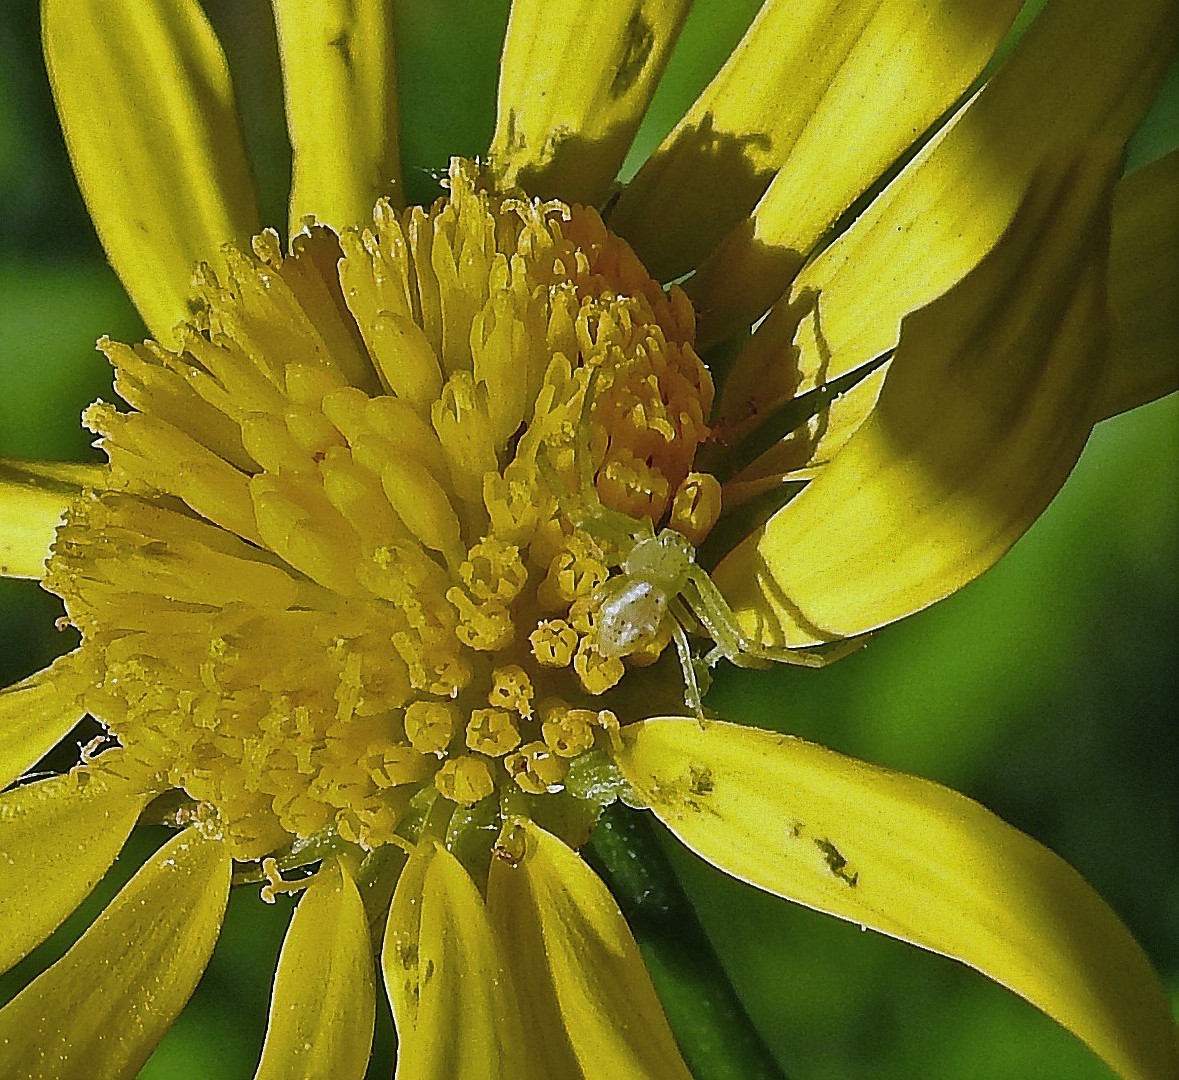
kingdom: Animalia
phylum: Arthropoda
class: Arachnida
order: Araneae
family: Thomisidae
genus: Misumenops
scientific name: Misumenops
